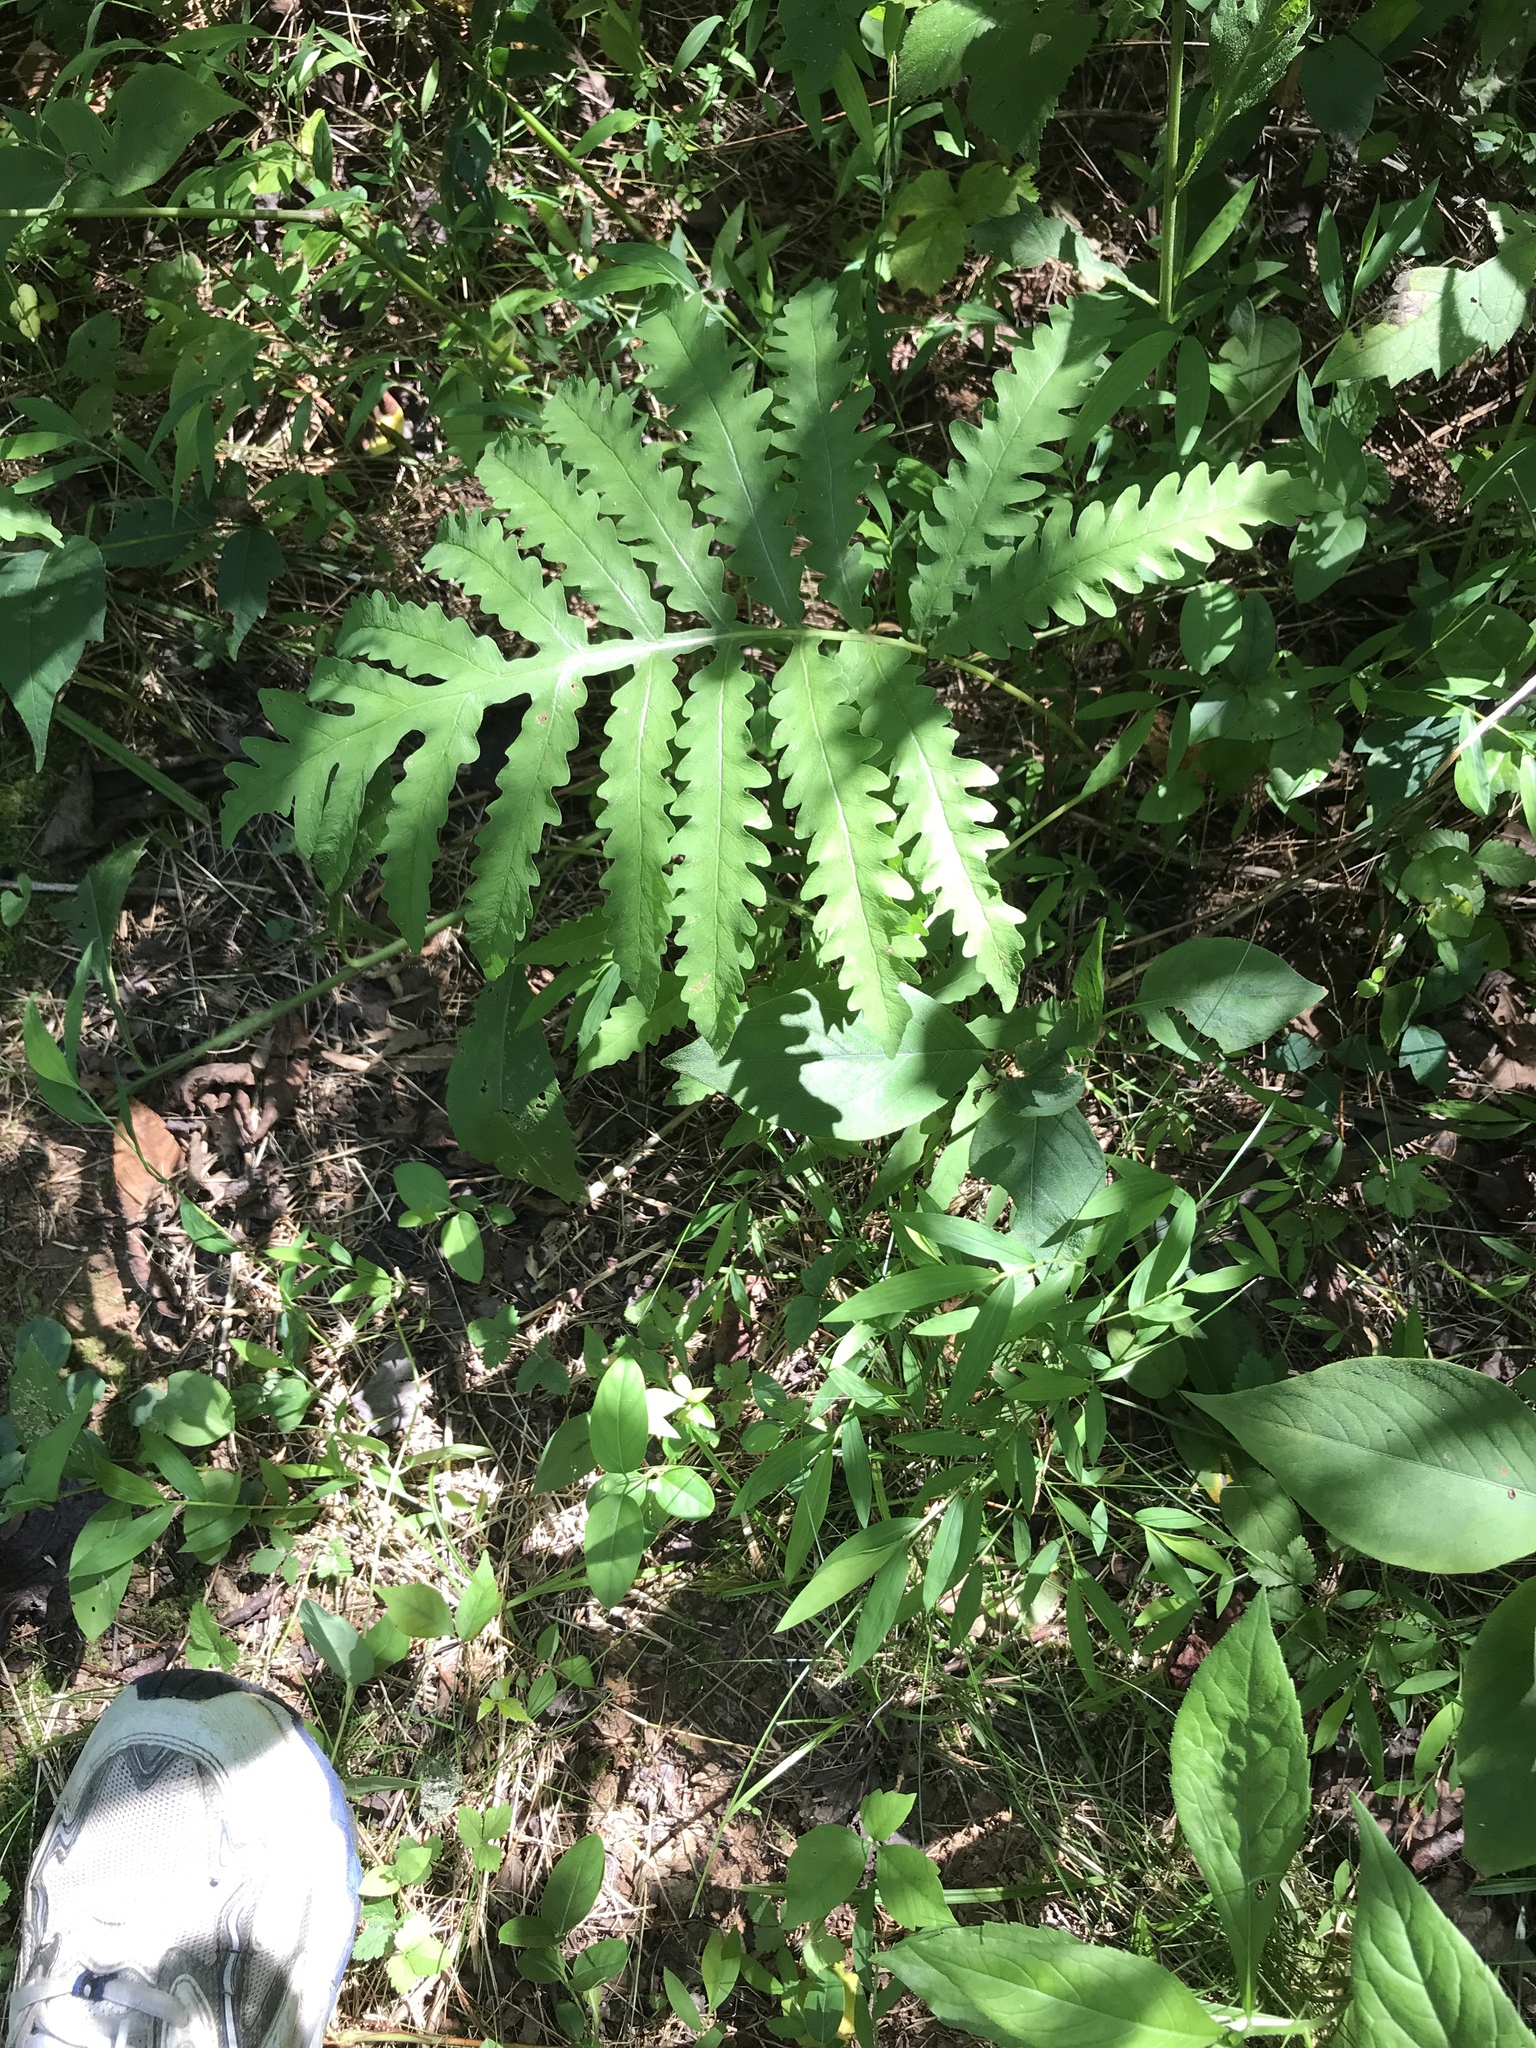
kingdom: Plantae
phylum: Tracheophyta
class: Polypodiopsida
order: Polypodiales
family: Onocleaceae
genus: Onoclea
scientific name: Onoclea sensibilis
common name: Sensitive fern
